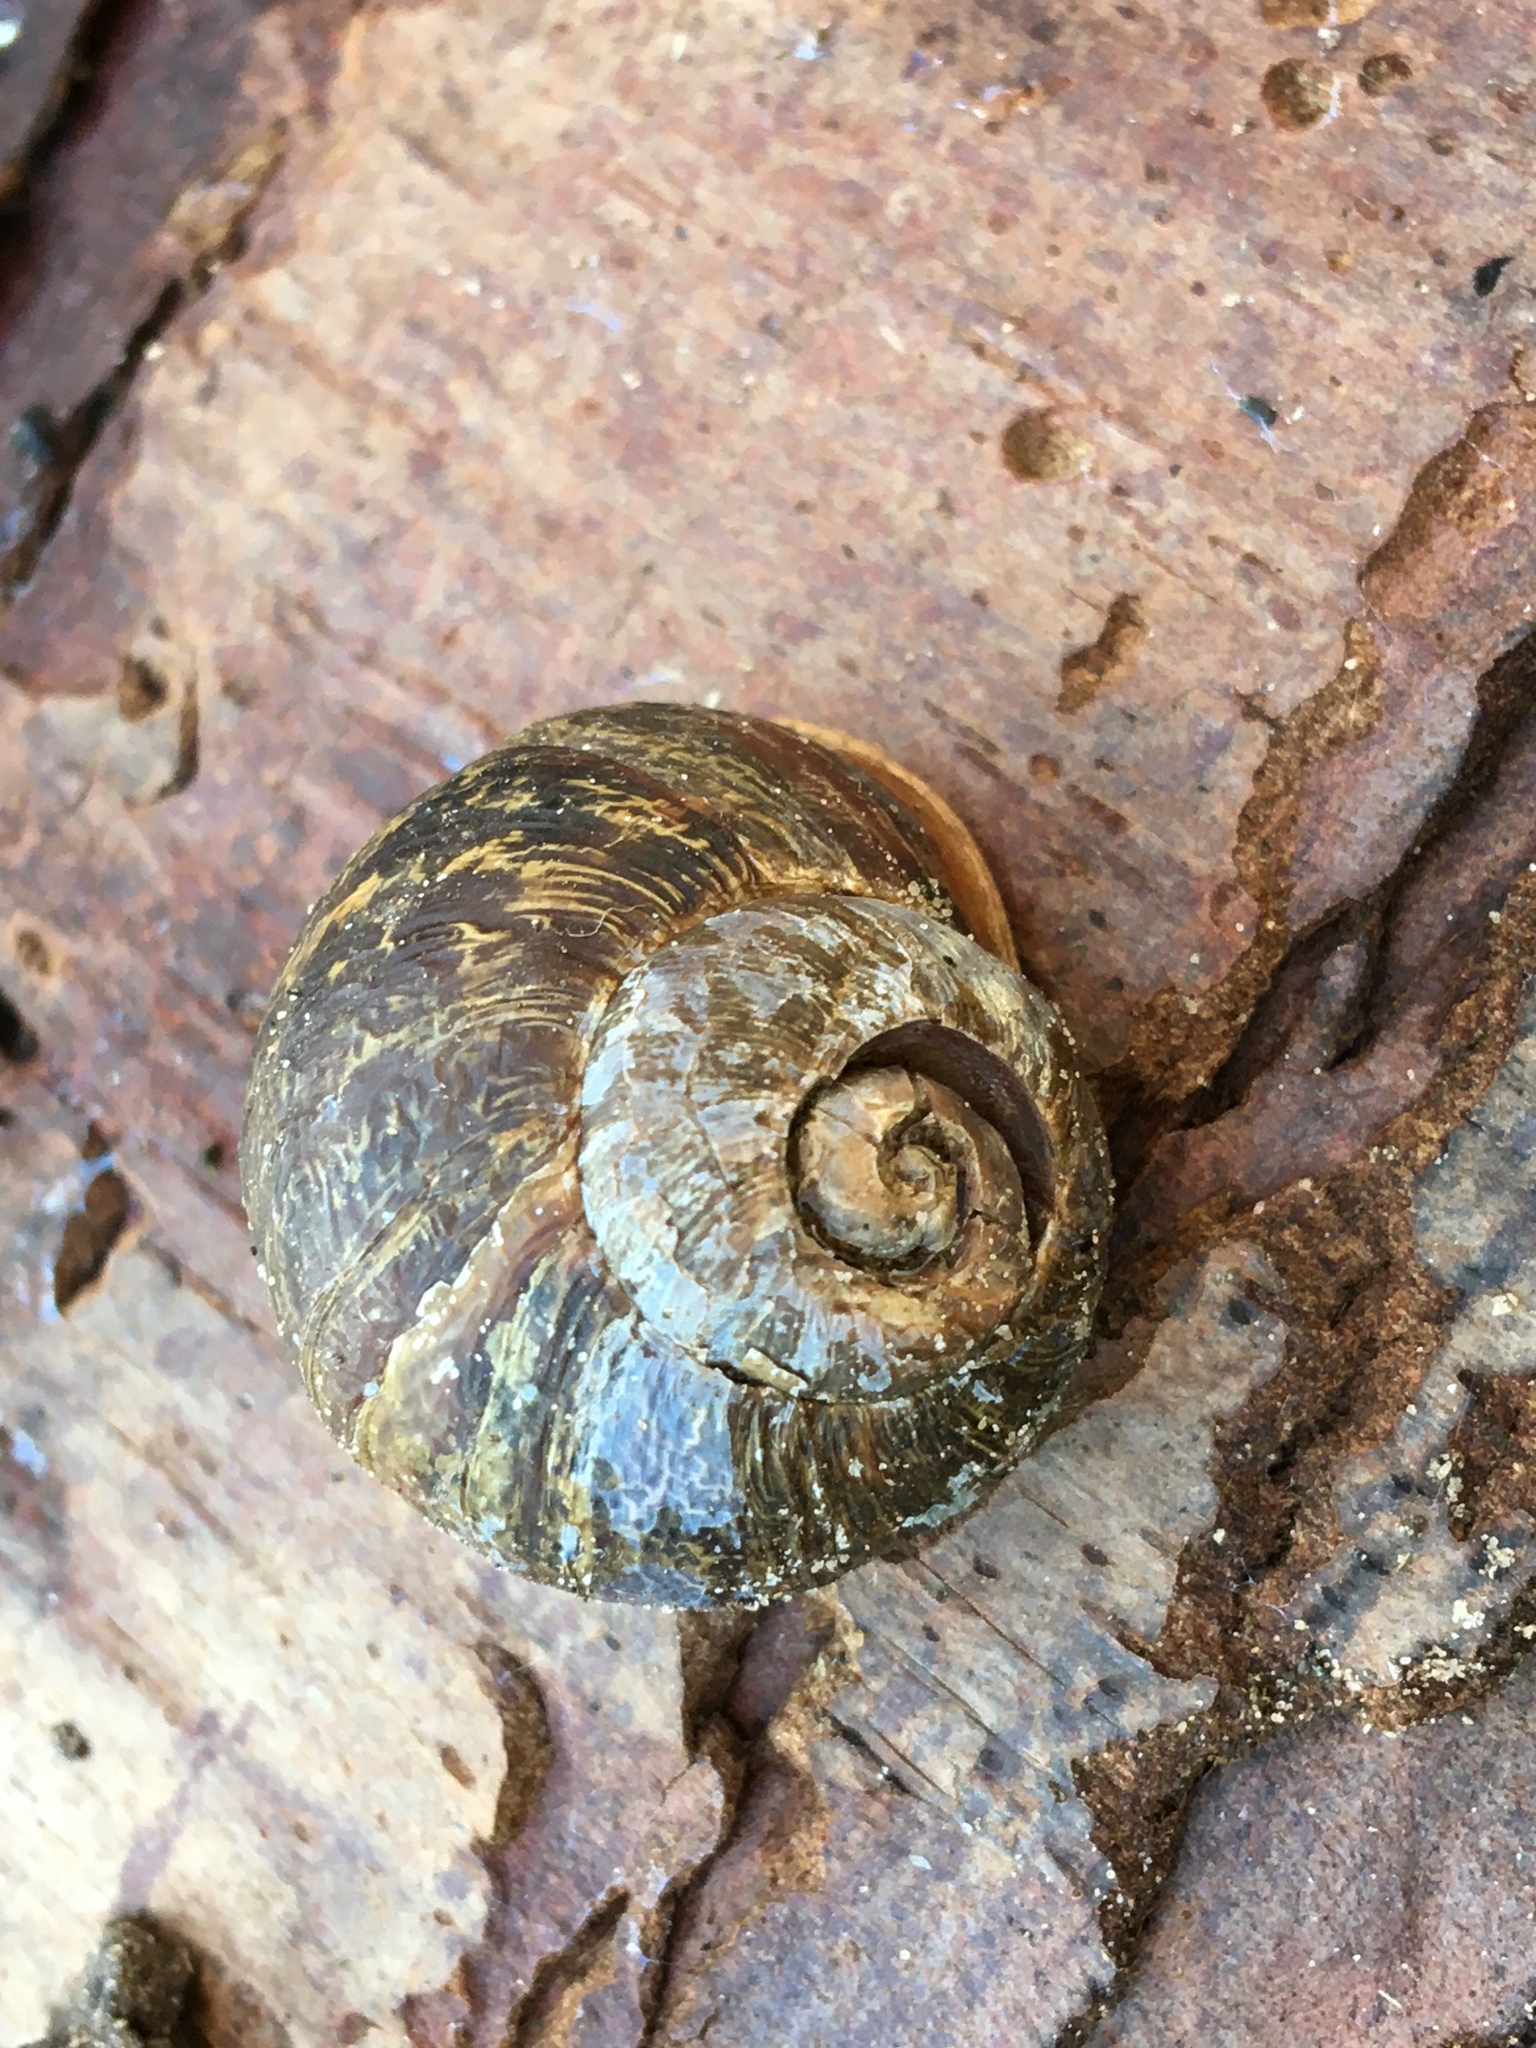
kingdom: Animalia
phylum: Mollusca
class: Gastropoda
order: Stylommatophora
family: Helicidae
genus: Cornu
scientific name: Cornu aspersum
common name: Brown garden snail
